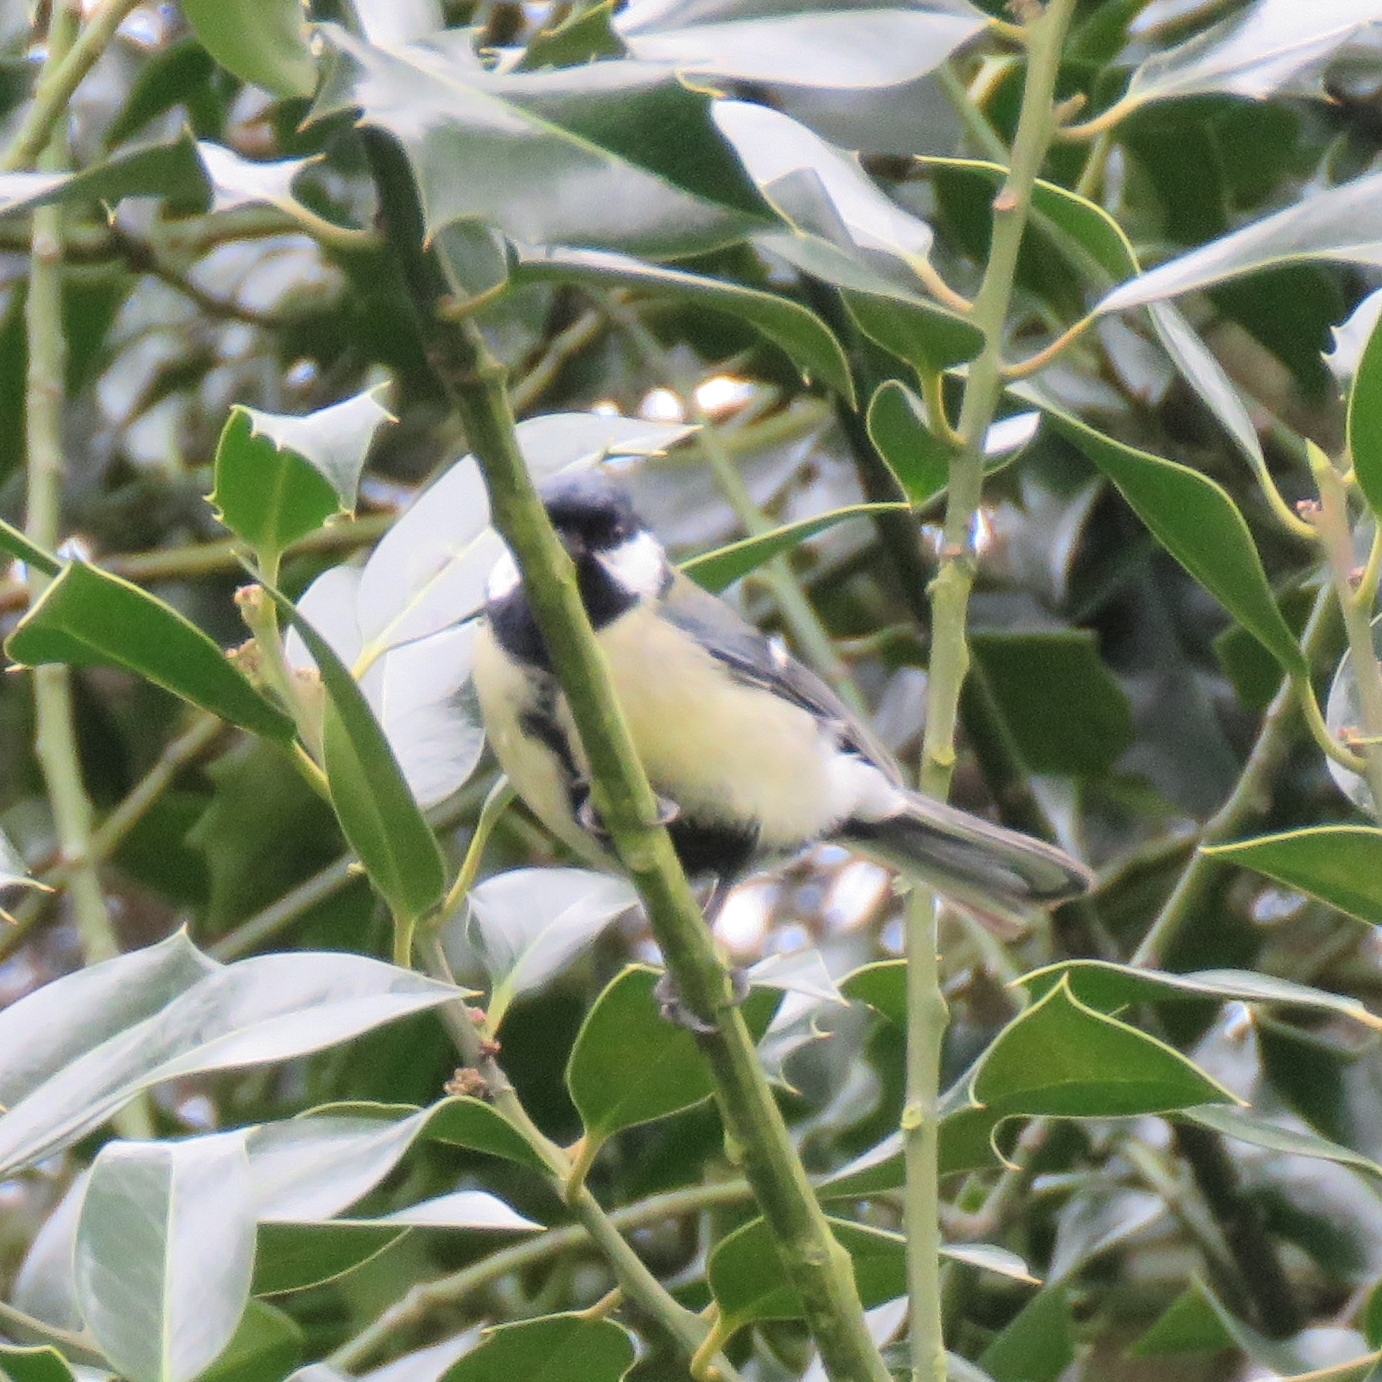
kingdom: Animalia
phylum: Chordata
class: Aves
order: Passeriformes
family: Paridae
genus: Parus
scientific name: Parus major
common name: Great tit
